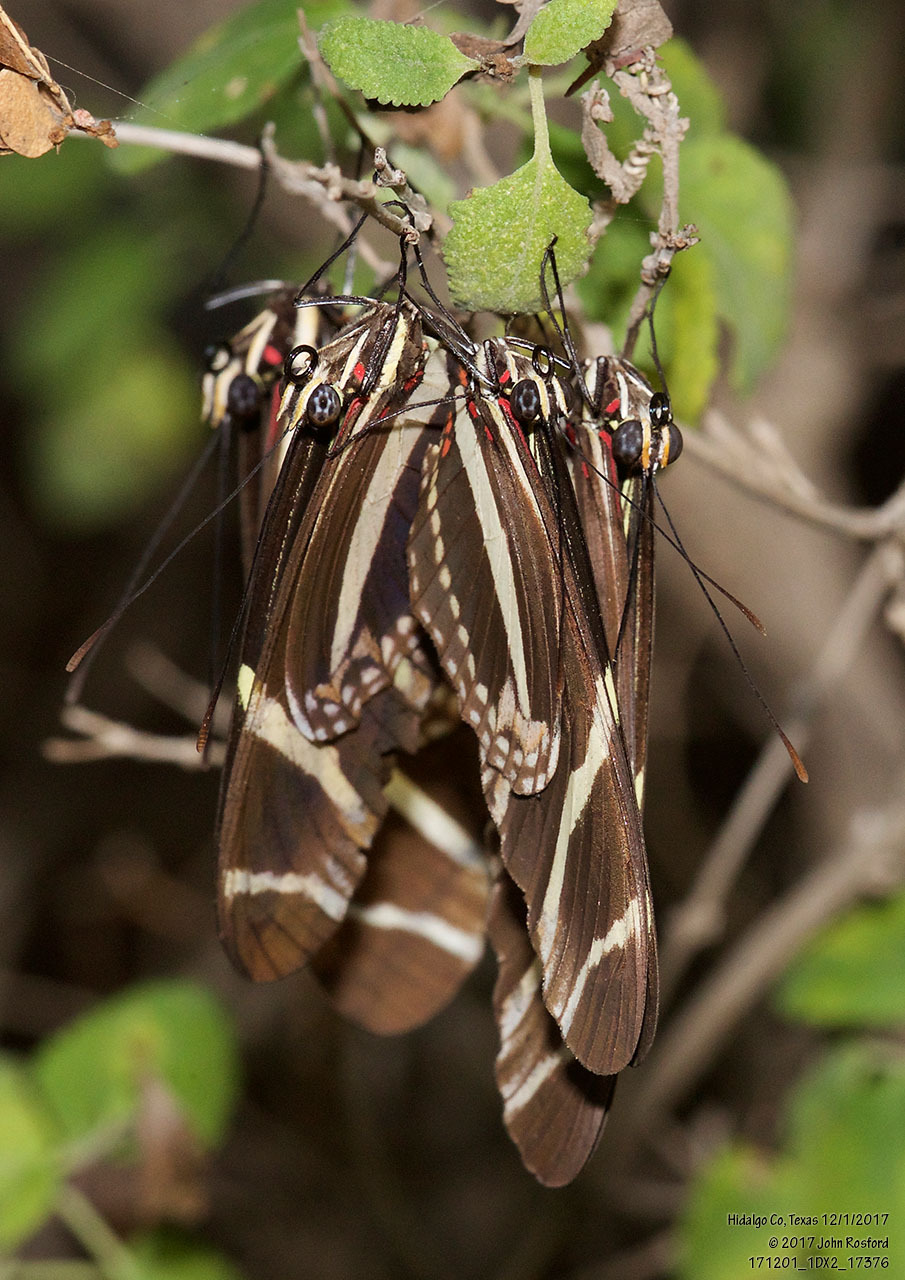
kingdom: Animalia
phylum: Arthropoda
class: Insecta
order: Lepidoptera
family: Nymphalidae
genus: Heliconius
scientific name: Heliconius charithonia
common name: Zebra long wing
